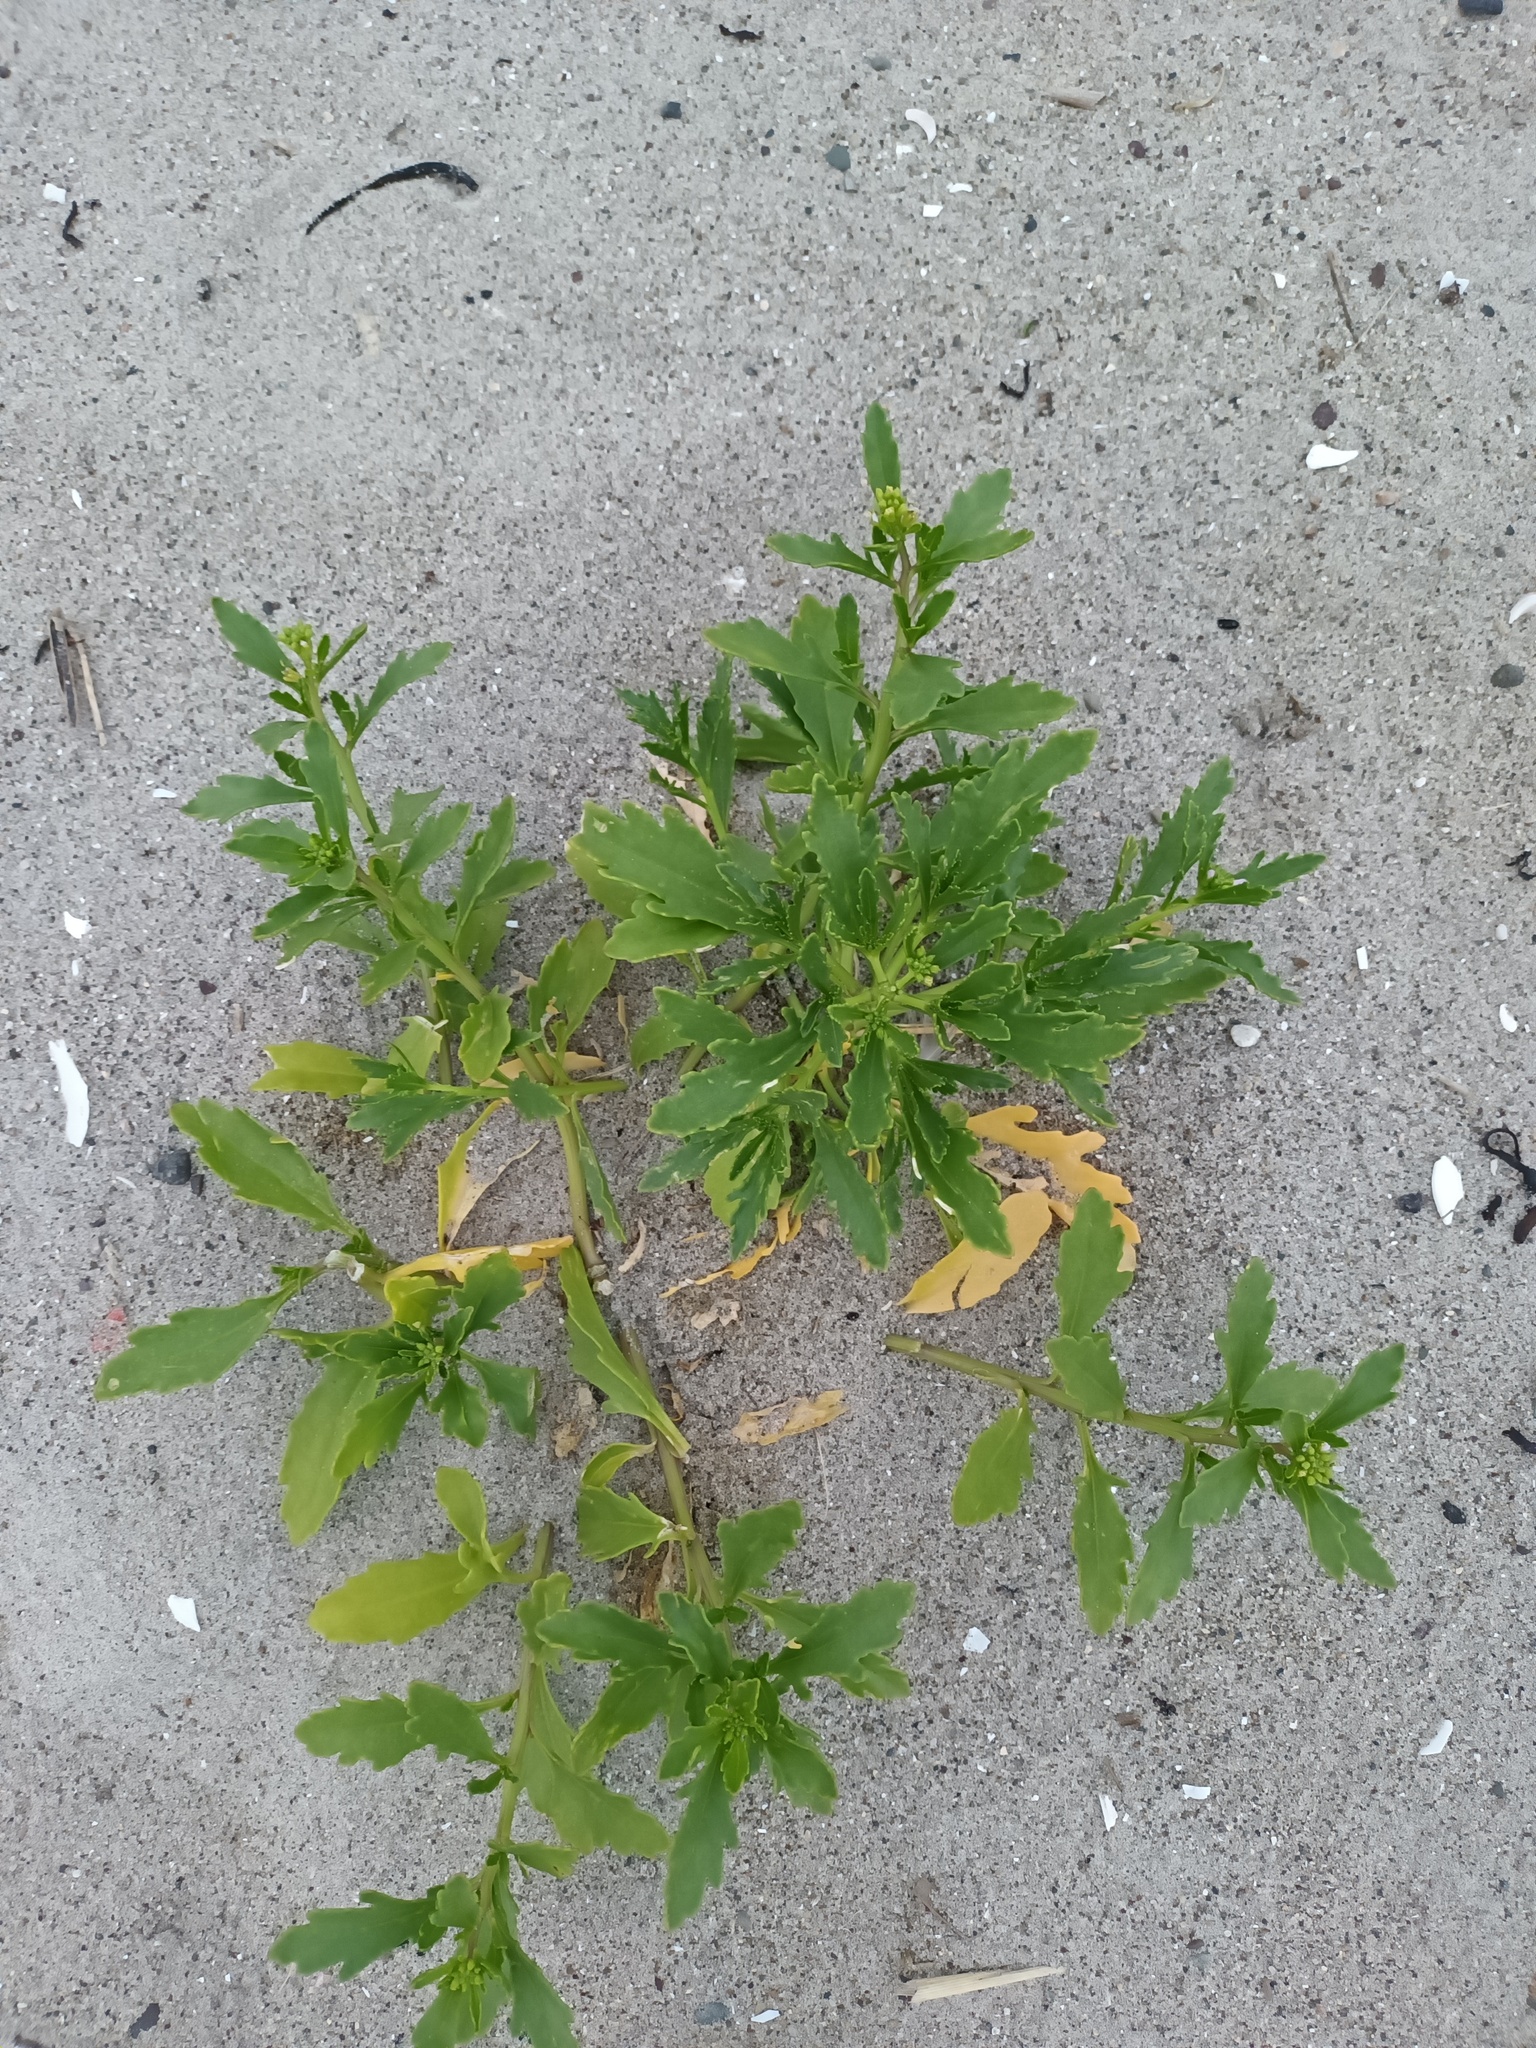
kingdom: Plantae
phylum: Tracheophyta
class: Magnoliopsida
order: Brassicales
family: Brassicaceae
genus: Cakile
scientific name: Cakile edentula
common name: American sea rocket
